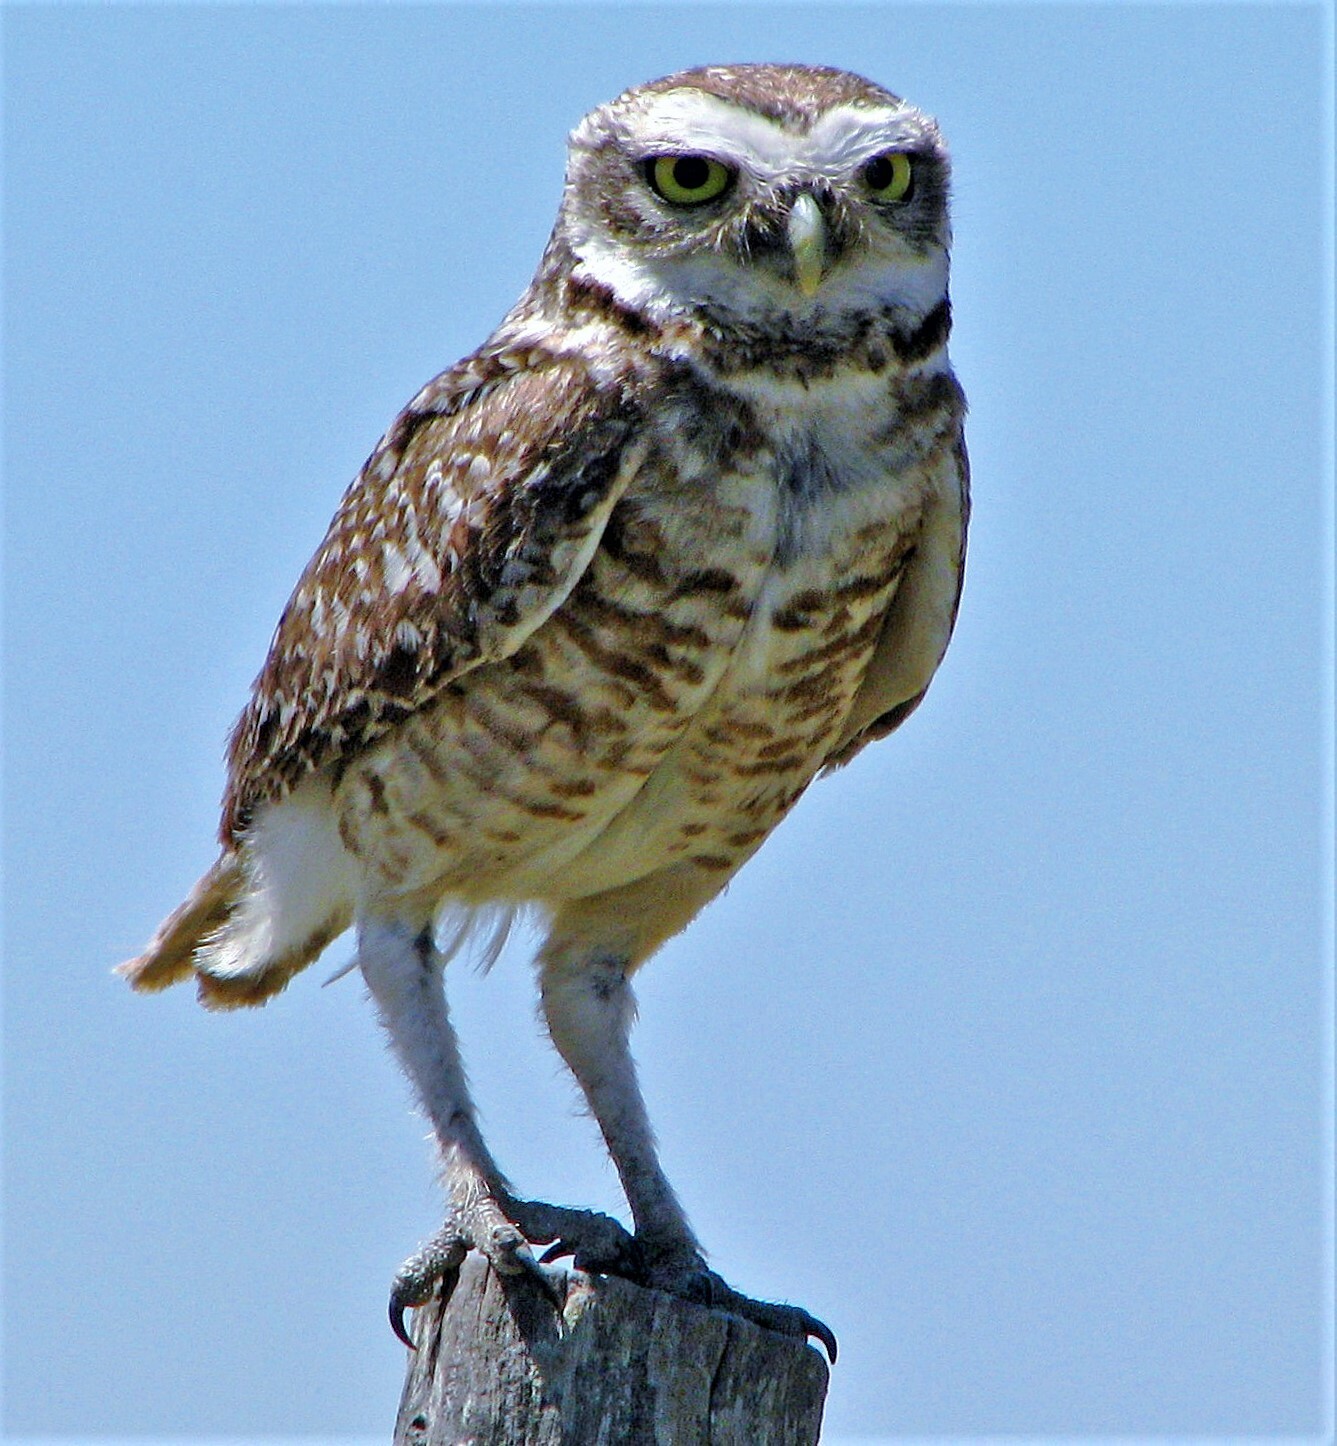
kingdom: Animalia
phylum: Chordata
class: Aves
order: Strigiformes
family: Strigidae
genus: Athene
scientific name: Athene cunicularia
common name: Burrowing owl
